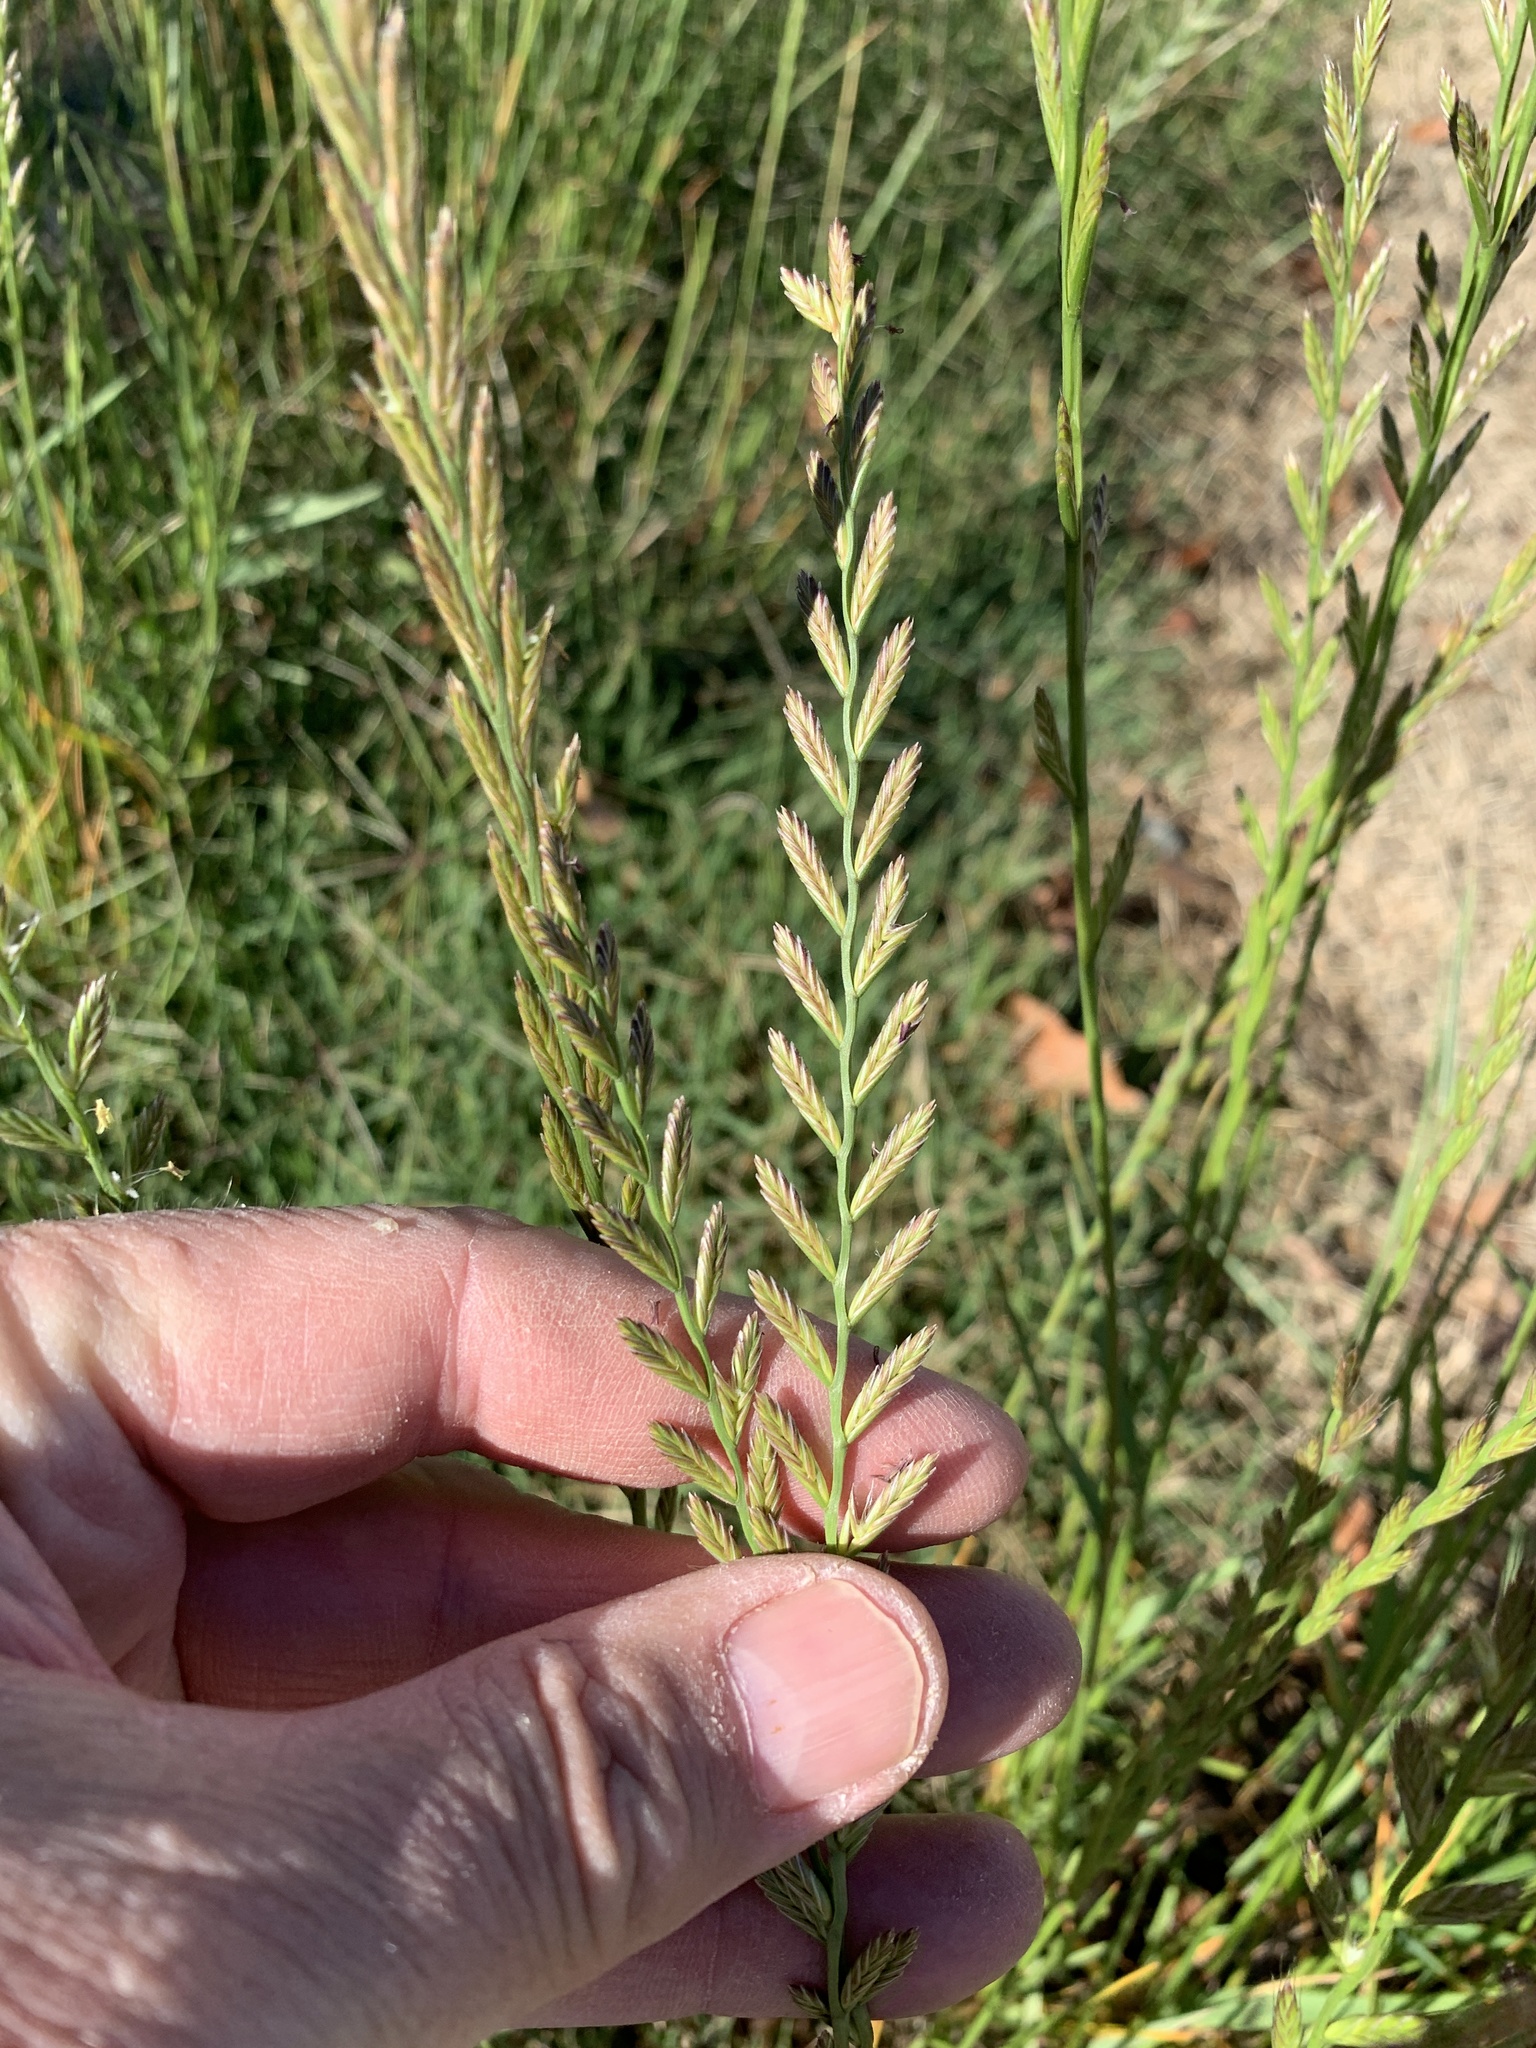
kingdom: Plantae
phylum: Tracheophyta
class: Liliopsida
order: Poales
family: Poaceae
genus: Lolium
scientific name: Lolium perenne
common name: Perennial ryegrass
